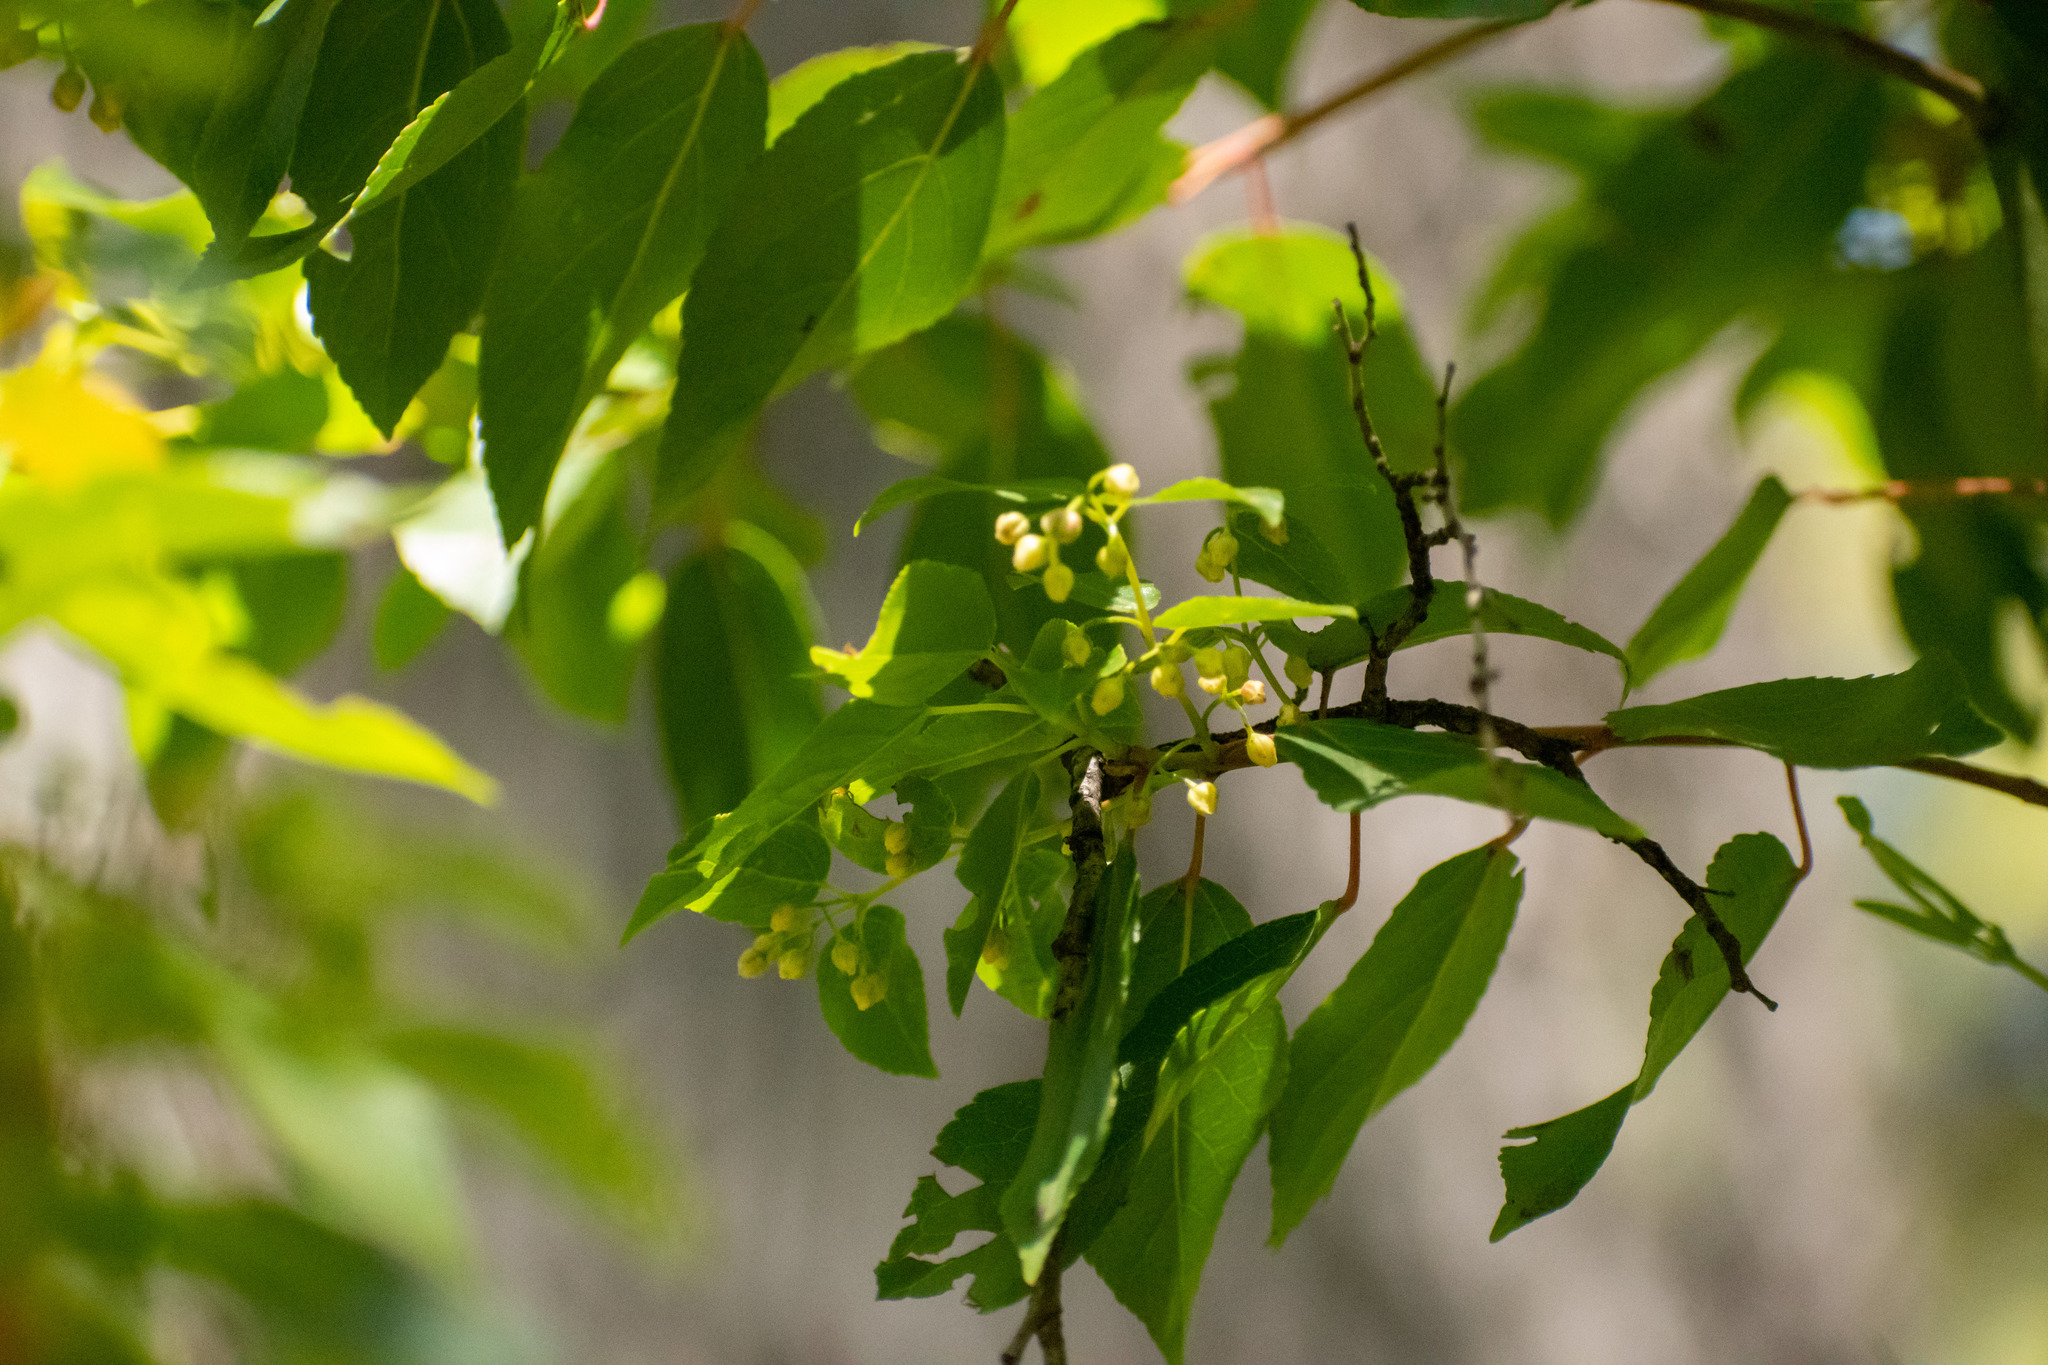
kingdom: Plantae
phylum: Tracheophyta
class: Magnoliopsida
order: Oxalidales
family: Elaeocarpaceae
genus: Aristotelia
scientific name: Aristotelia chilensis
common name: Maquei
